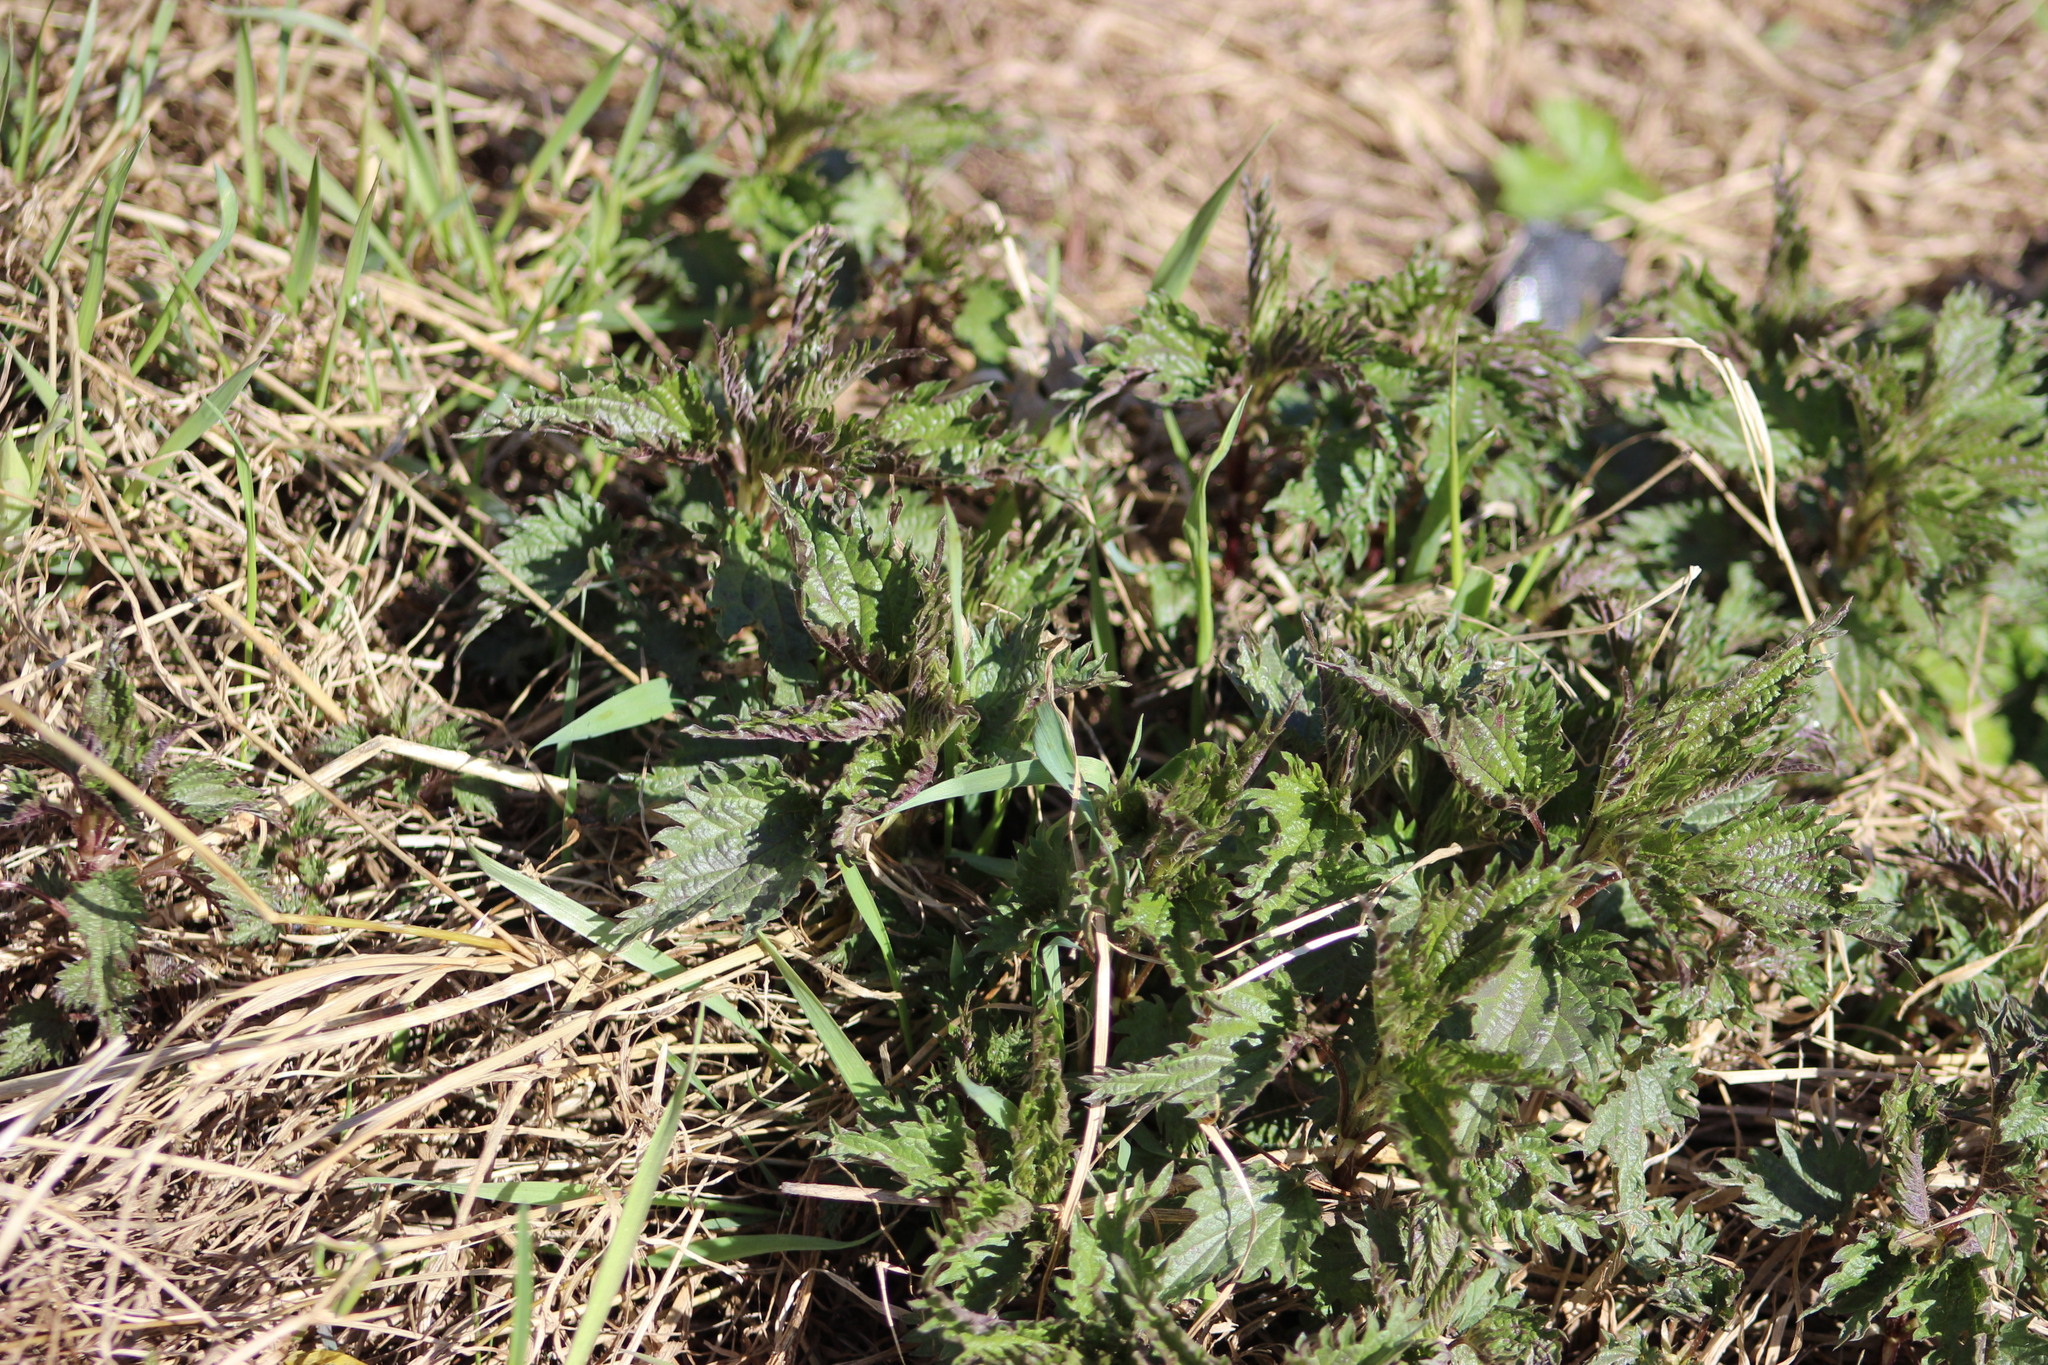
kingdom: Plantae
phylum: Tracheophyta
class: Magnoliopsida
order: Rosales
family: Urticaceae
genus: Urtica
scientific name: Urtica dioica
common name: Common nettle
